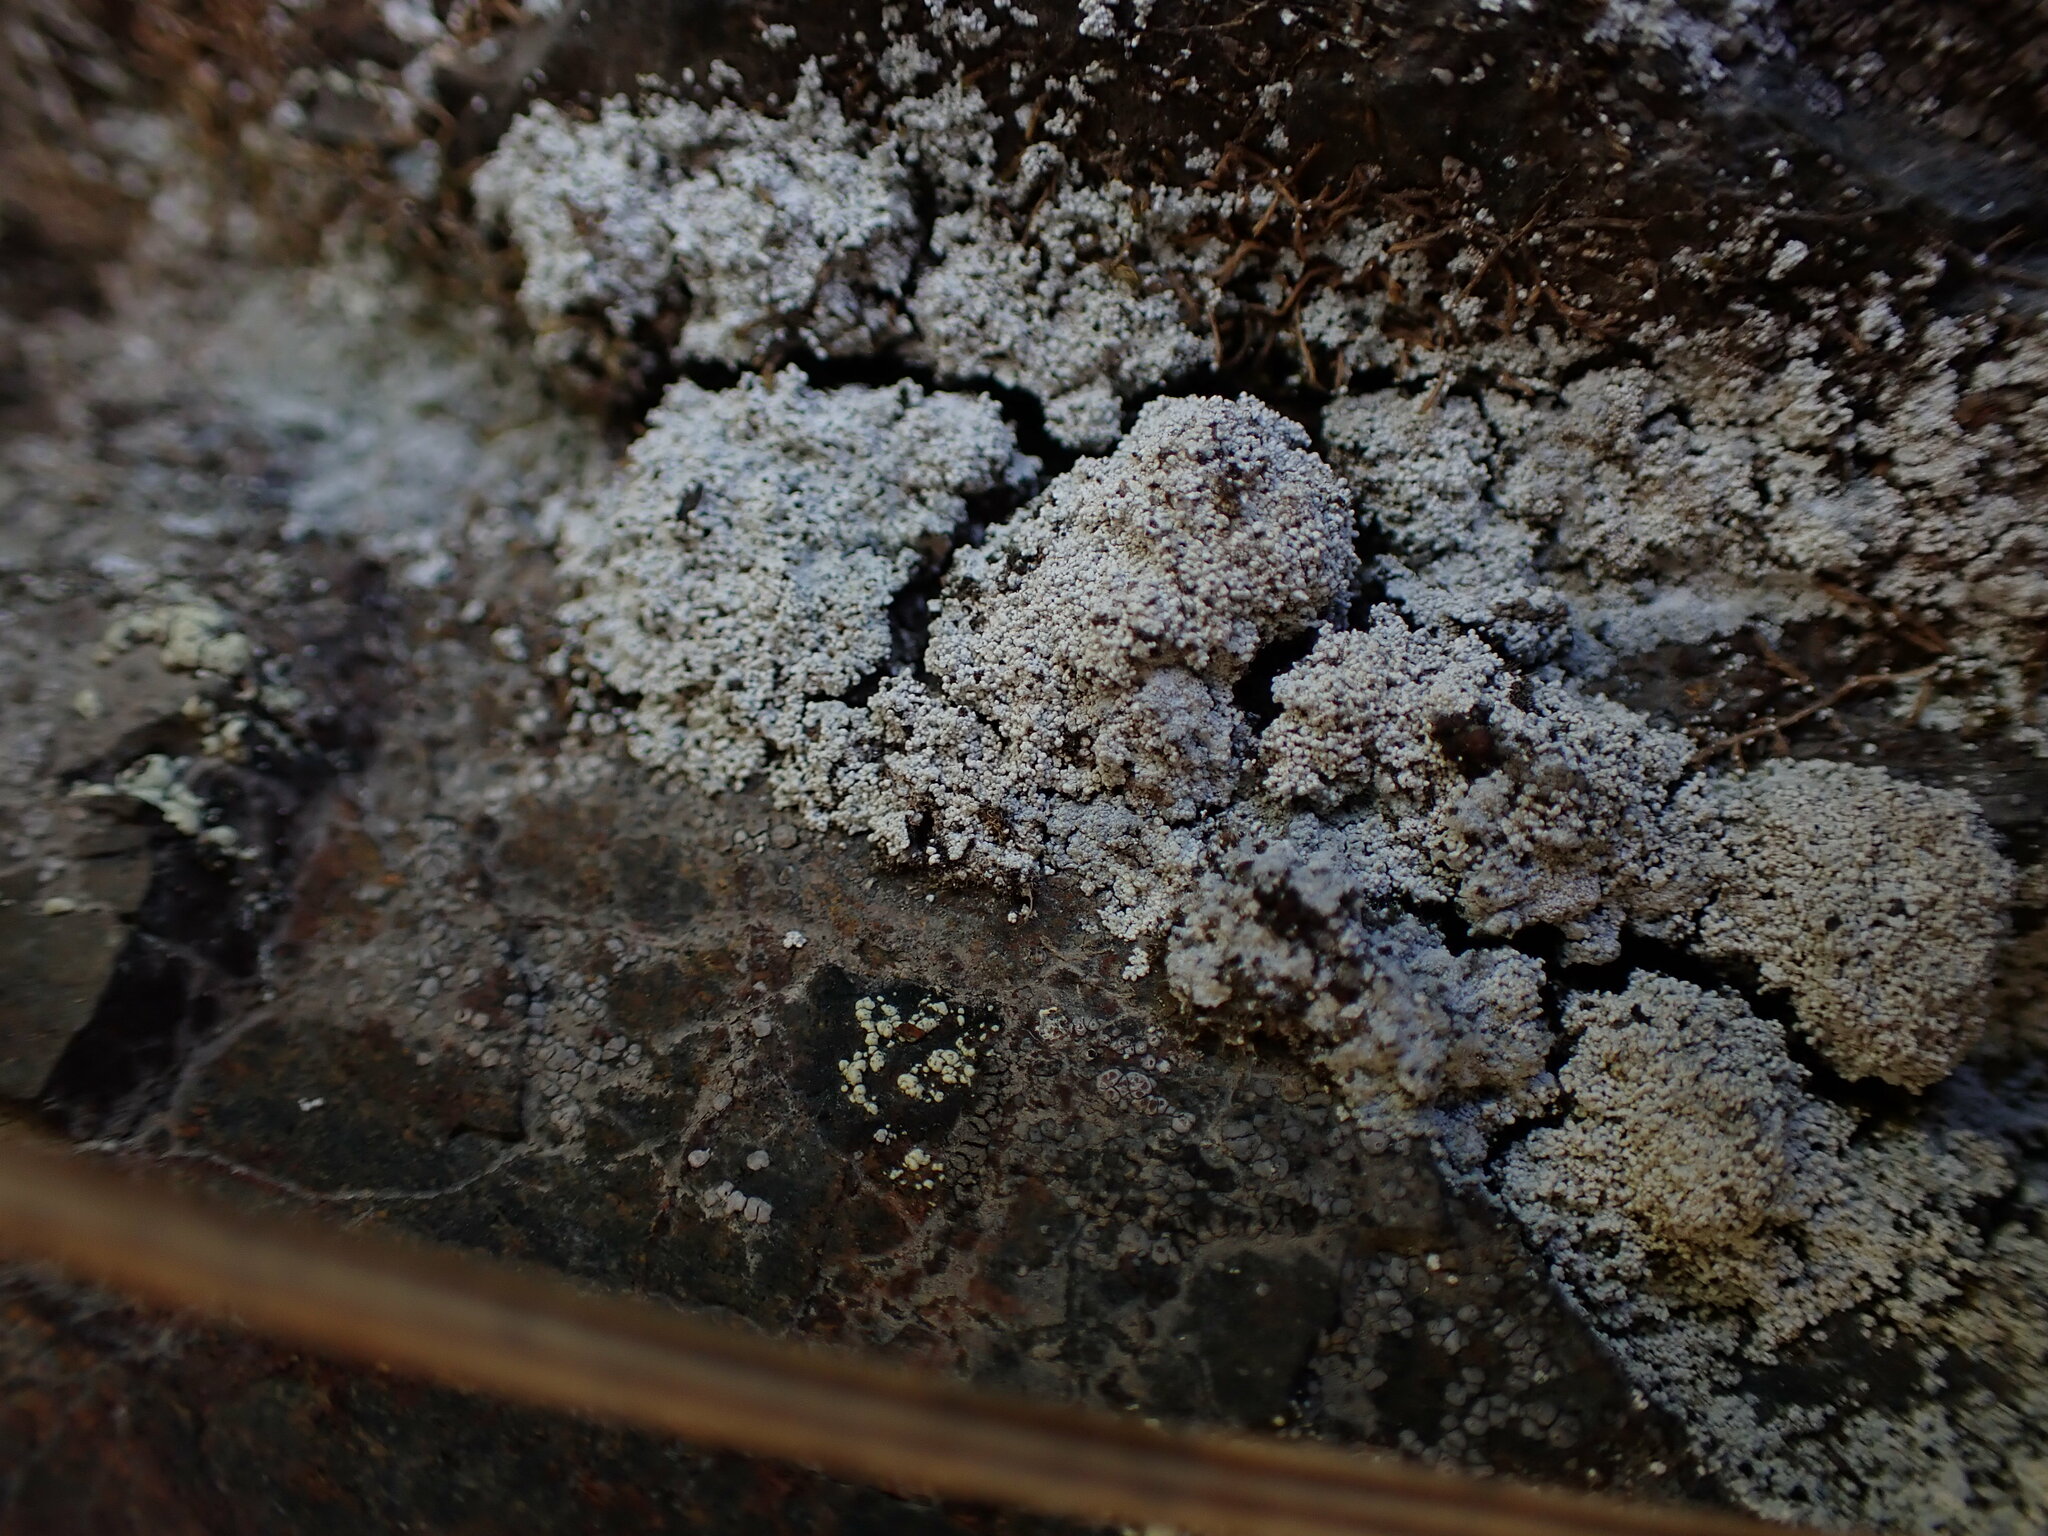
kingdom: Fungi
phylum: Ascomycota
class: Lecanoromycetes
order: Baeomycetales
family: Trapeliaceae
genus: Trapeliopsis
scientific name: Trapeliopsis granulosa
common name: Granular mottled-disk lichen
